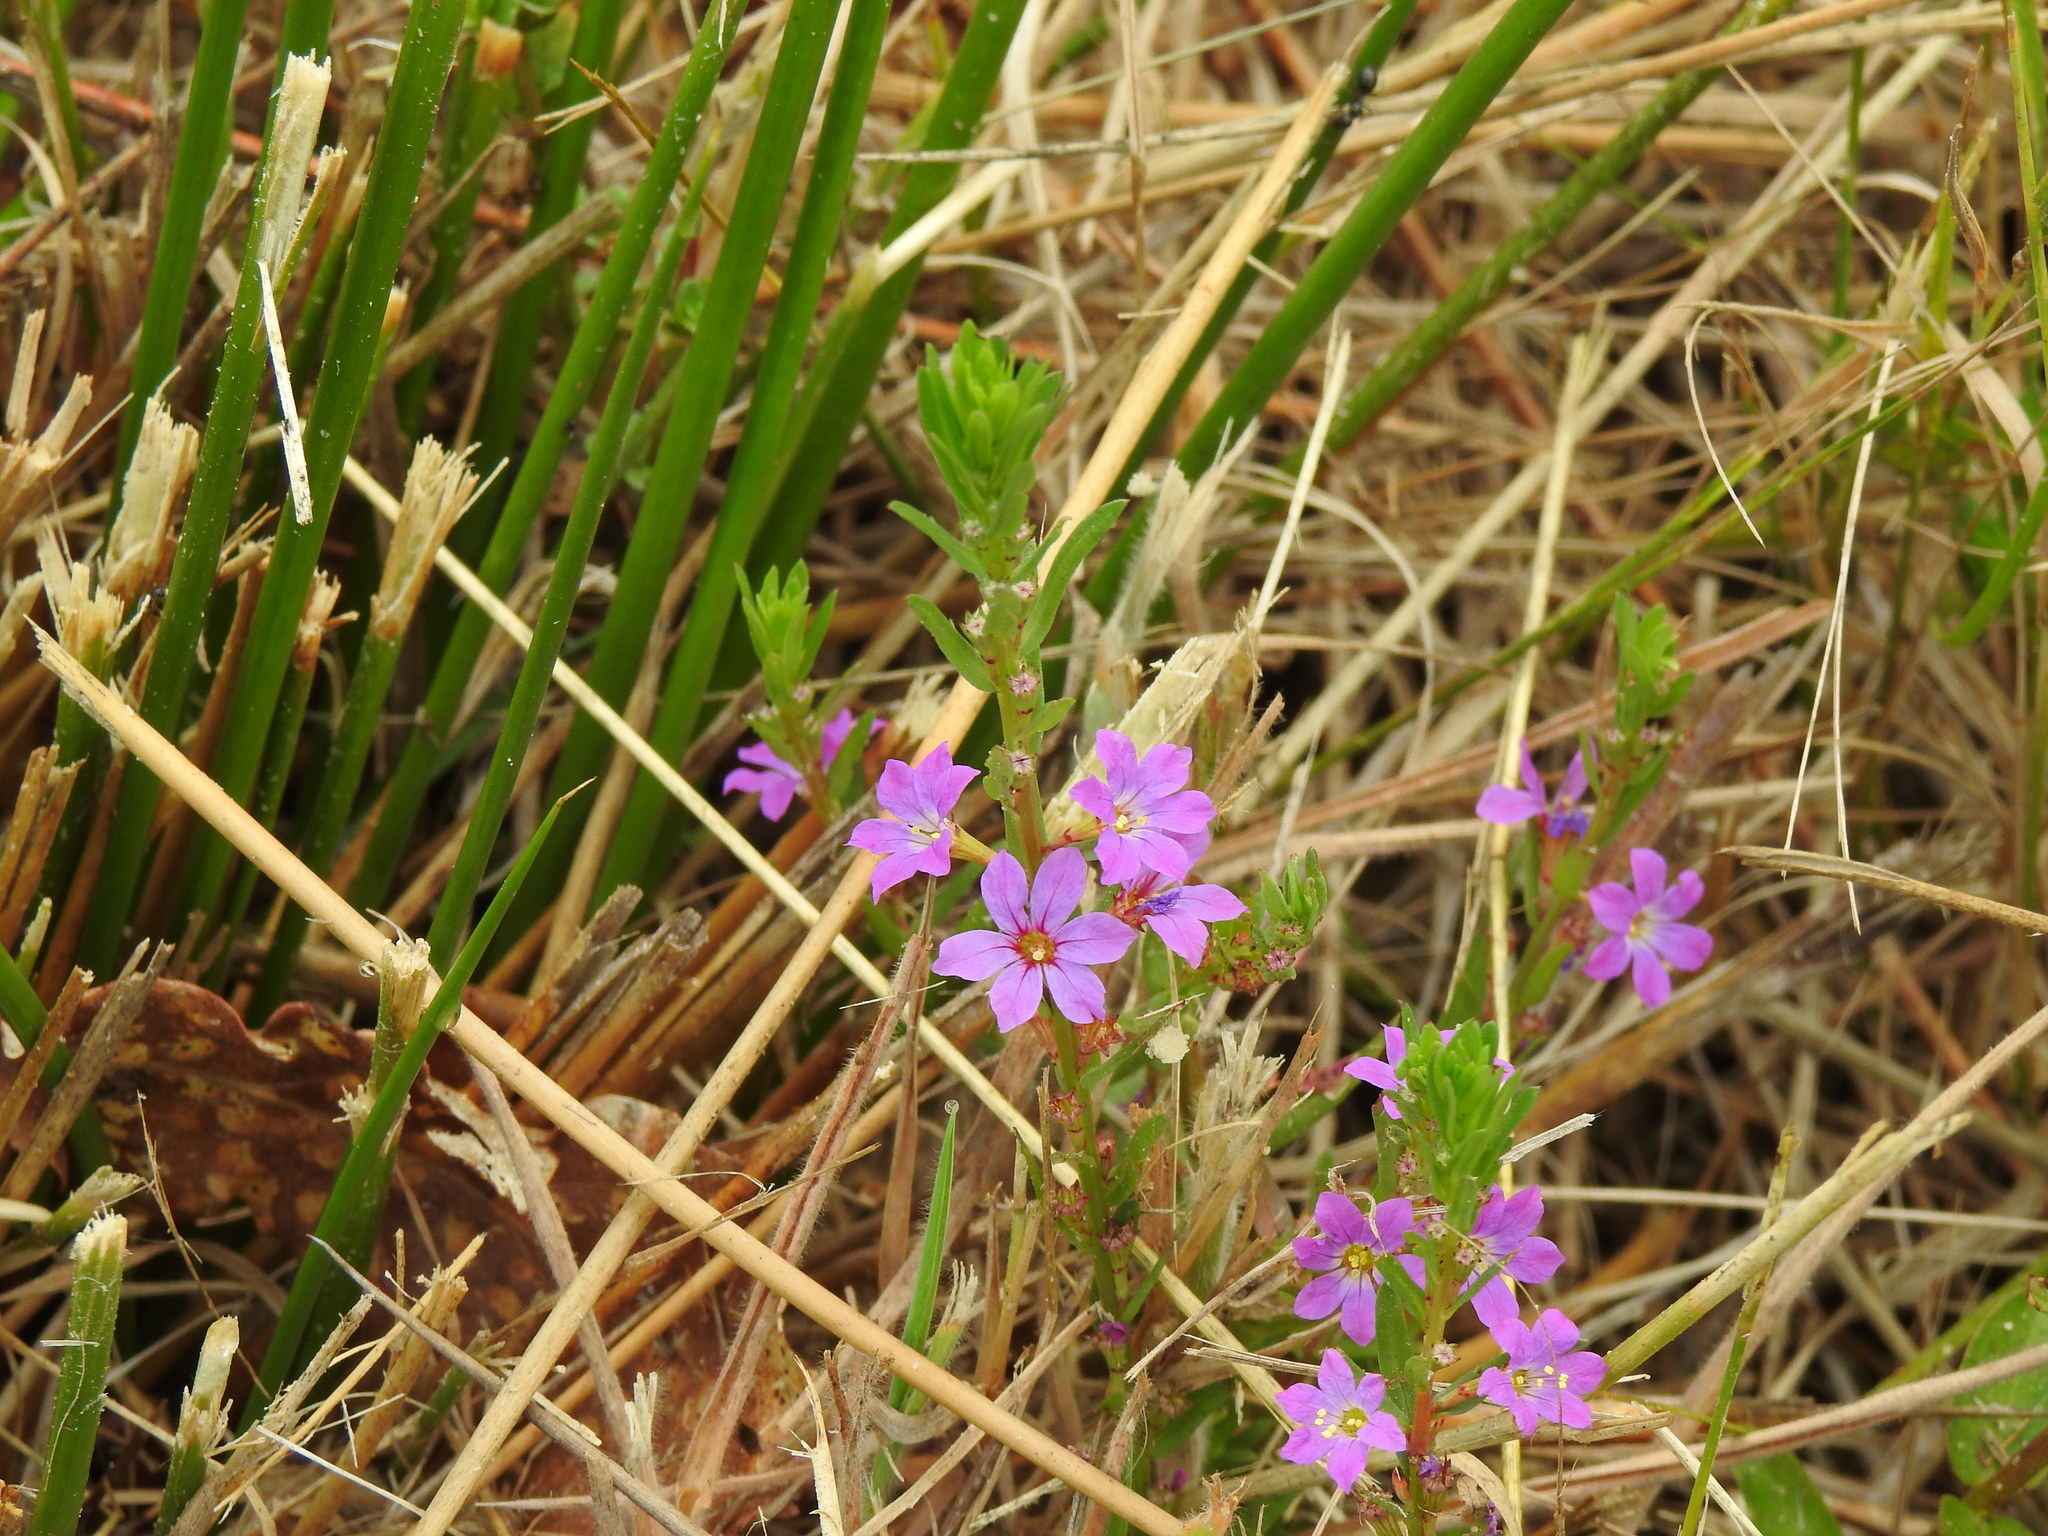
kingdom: Plantae
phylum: Tracheophyta
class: Magnoliopsida
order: Myrtales
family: Lythraceae
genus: Lythrum
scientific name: Lythrum junceum
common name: False grass-poly
